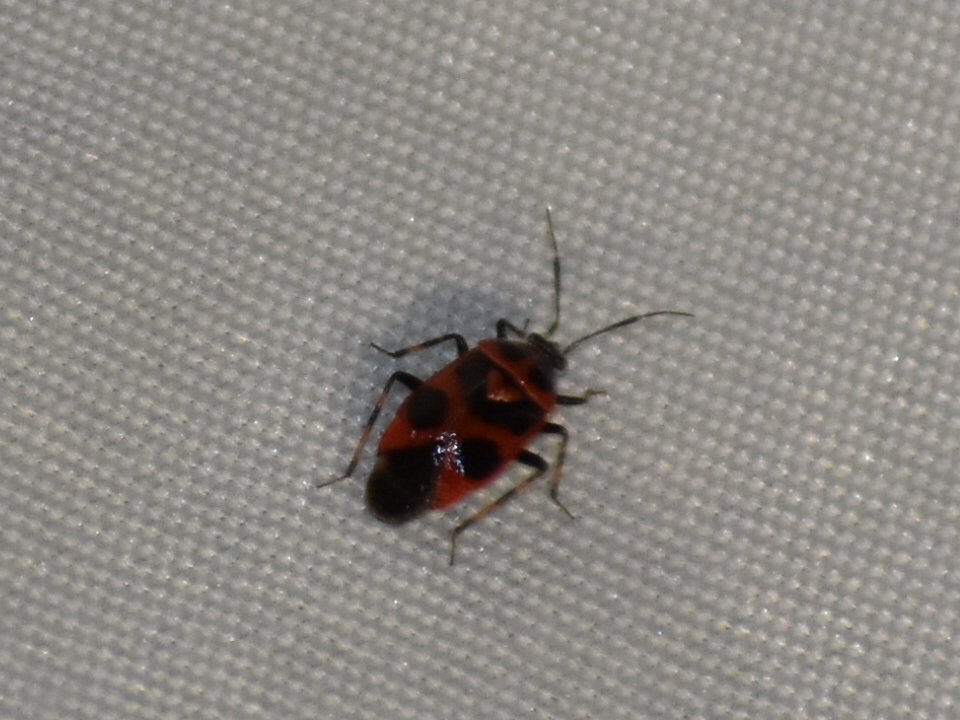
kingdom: Animalia
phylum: Arthropoda
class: Insecta
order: Hemiptera
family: Miridae
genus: Deraeocoris
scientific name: Deraeocoris histrio
